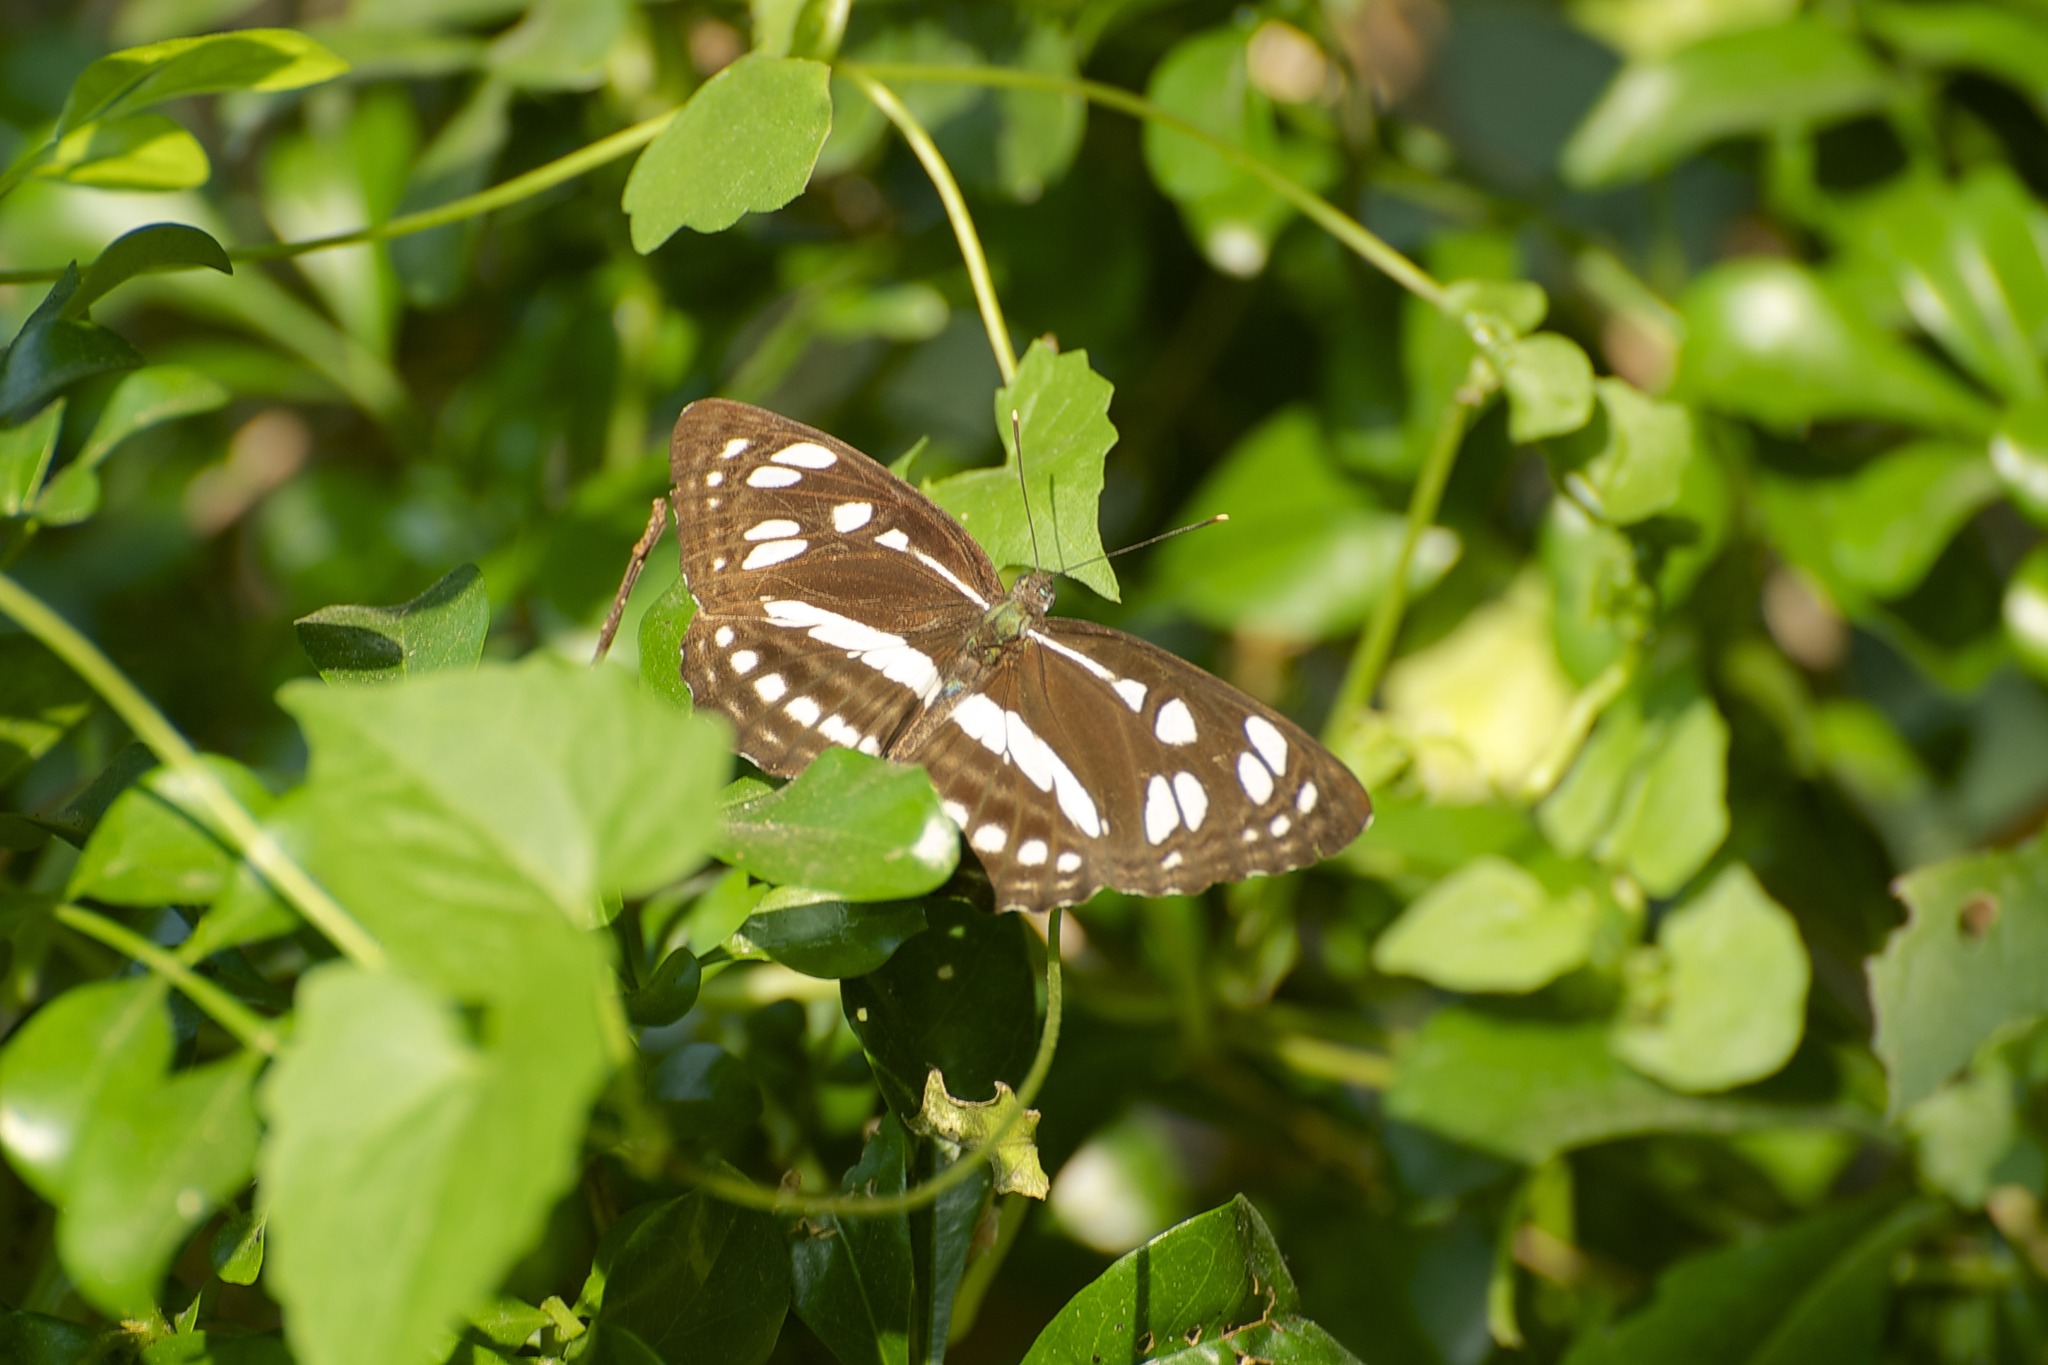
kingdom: Animalia
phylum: Arthropoda
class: Insecta
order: Lepidoptera
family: Nymphalidae
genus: Phaedyma
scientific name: Phaedyma columella
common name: Short banded sailer
